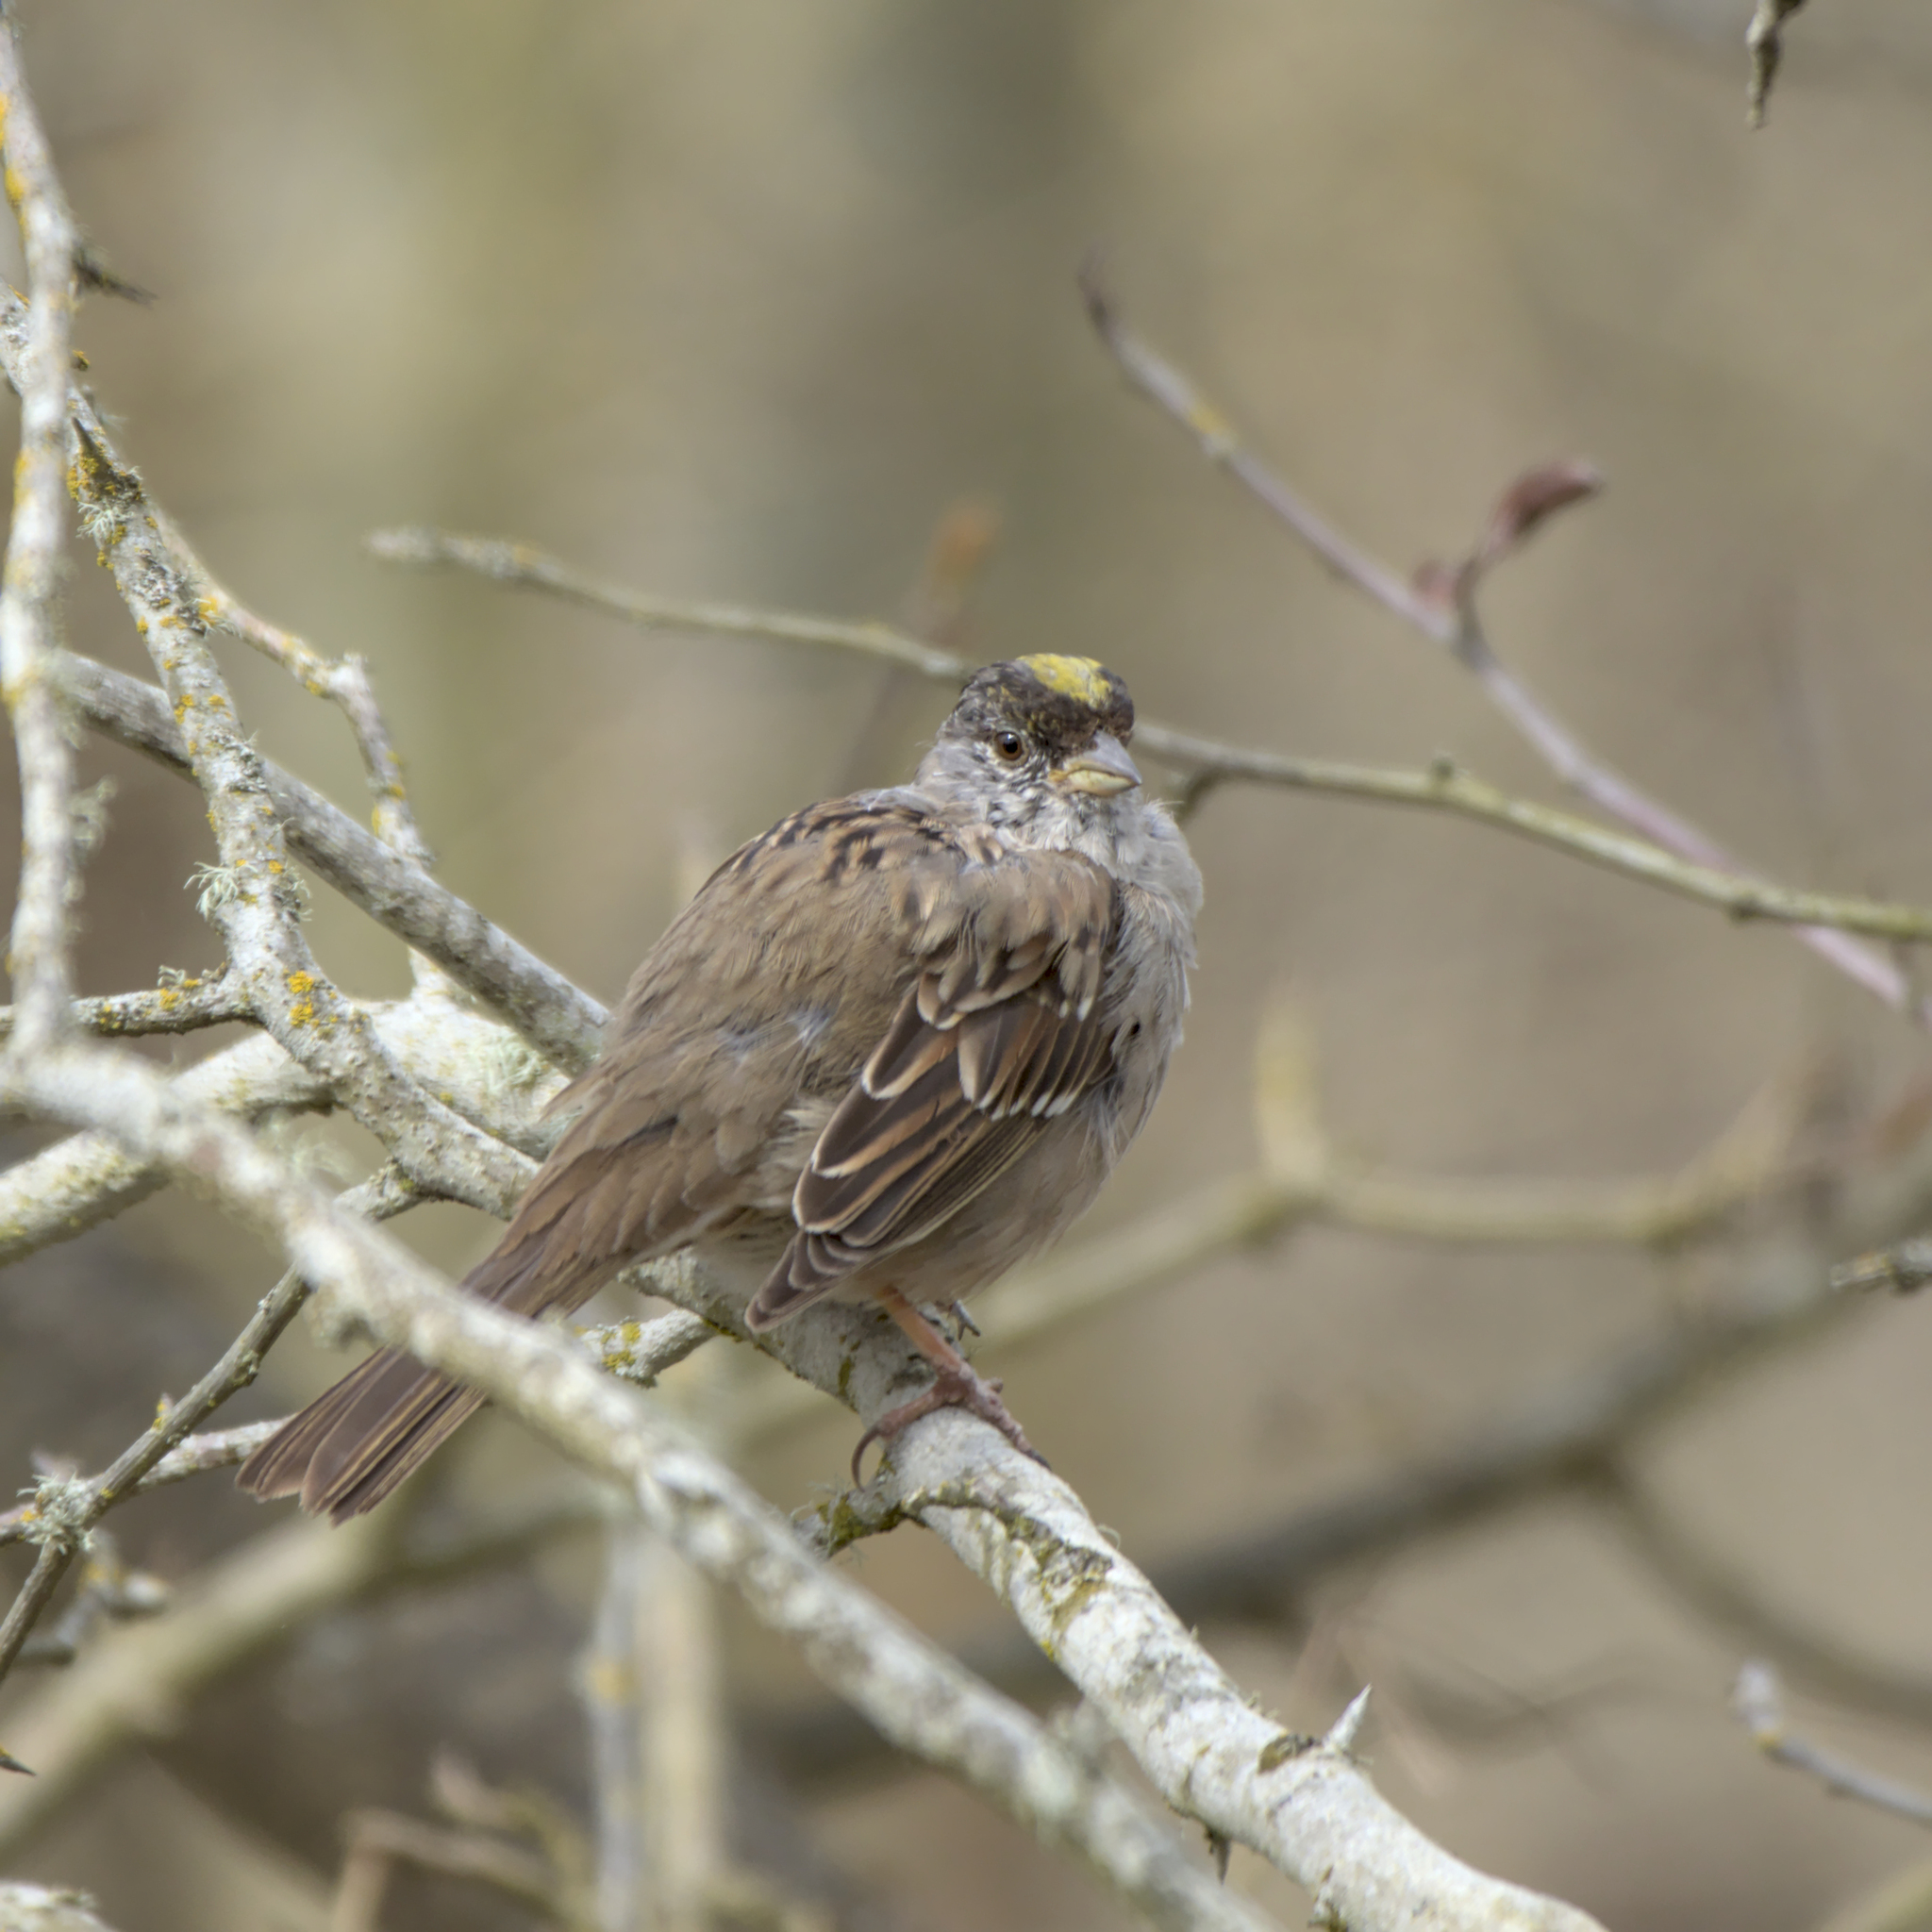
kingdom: Animalia
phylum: Chordata
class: Aves
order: Passeriformes
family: Passerellidae
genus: Zonotrichia
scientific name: Zonotrichia atricapilla
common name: Golden-crowned sparrow
